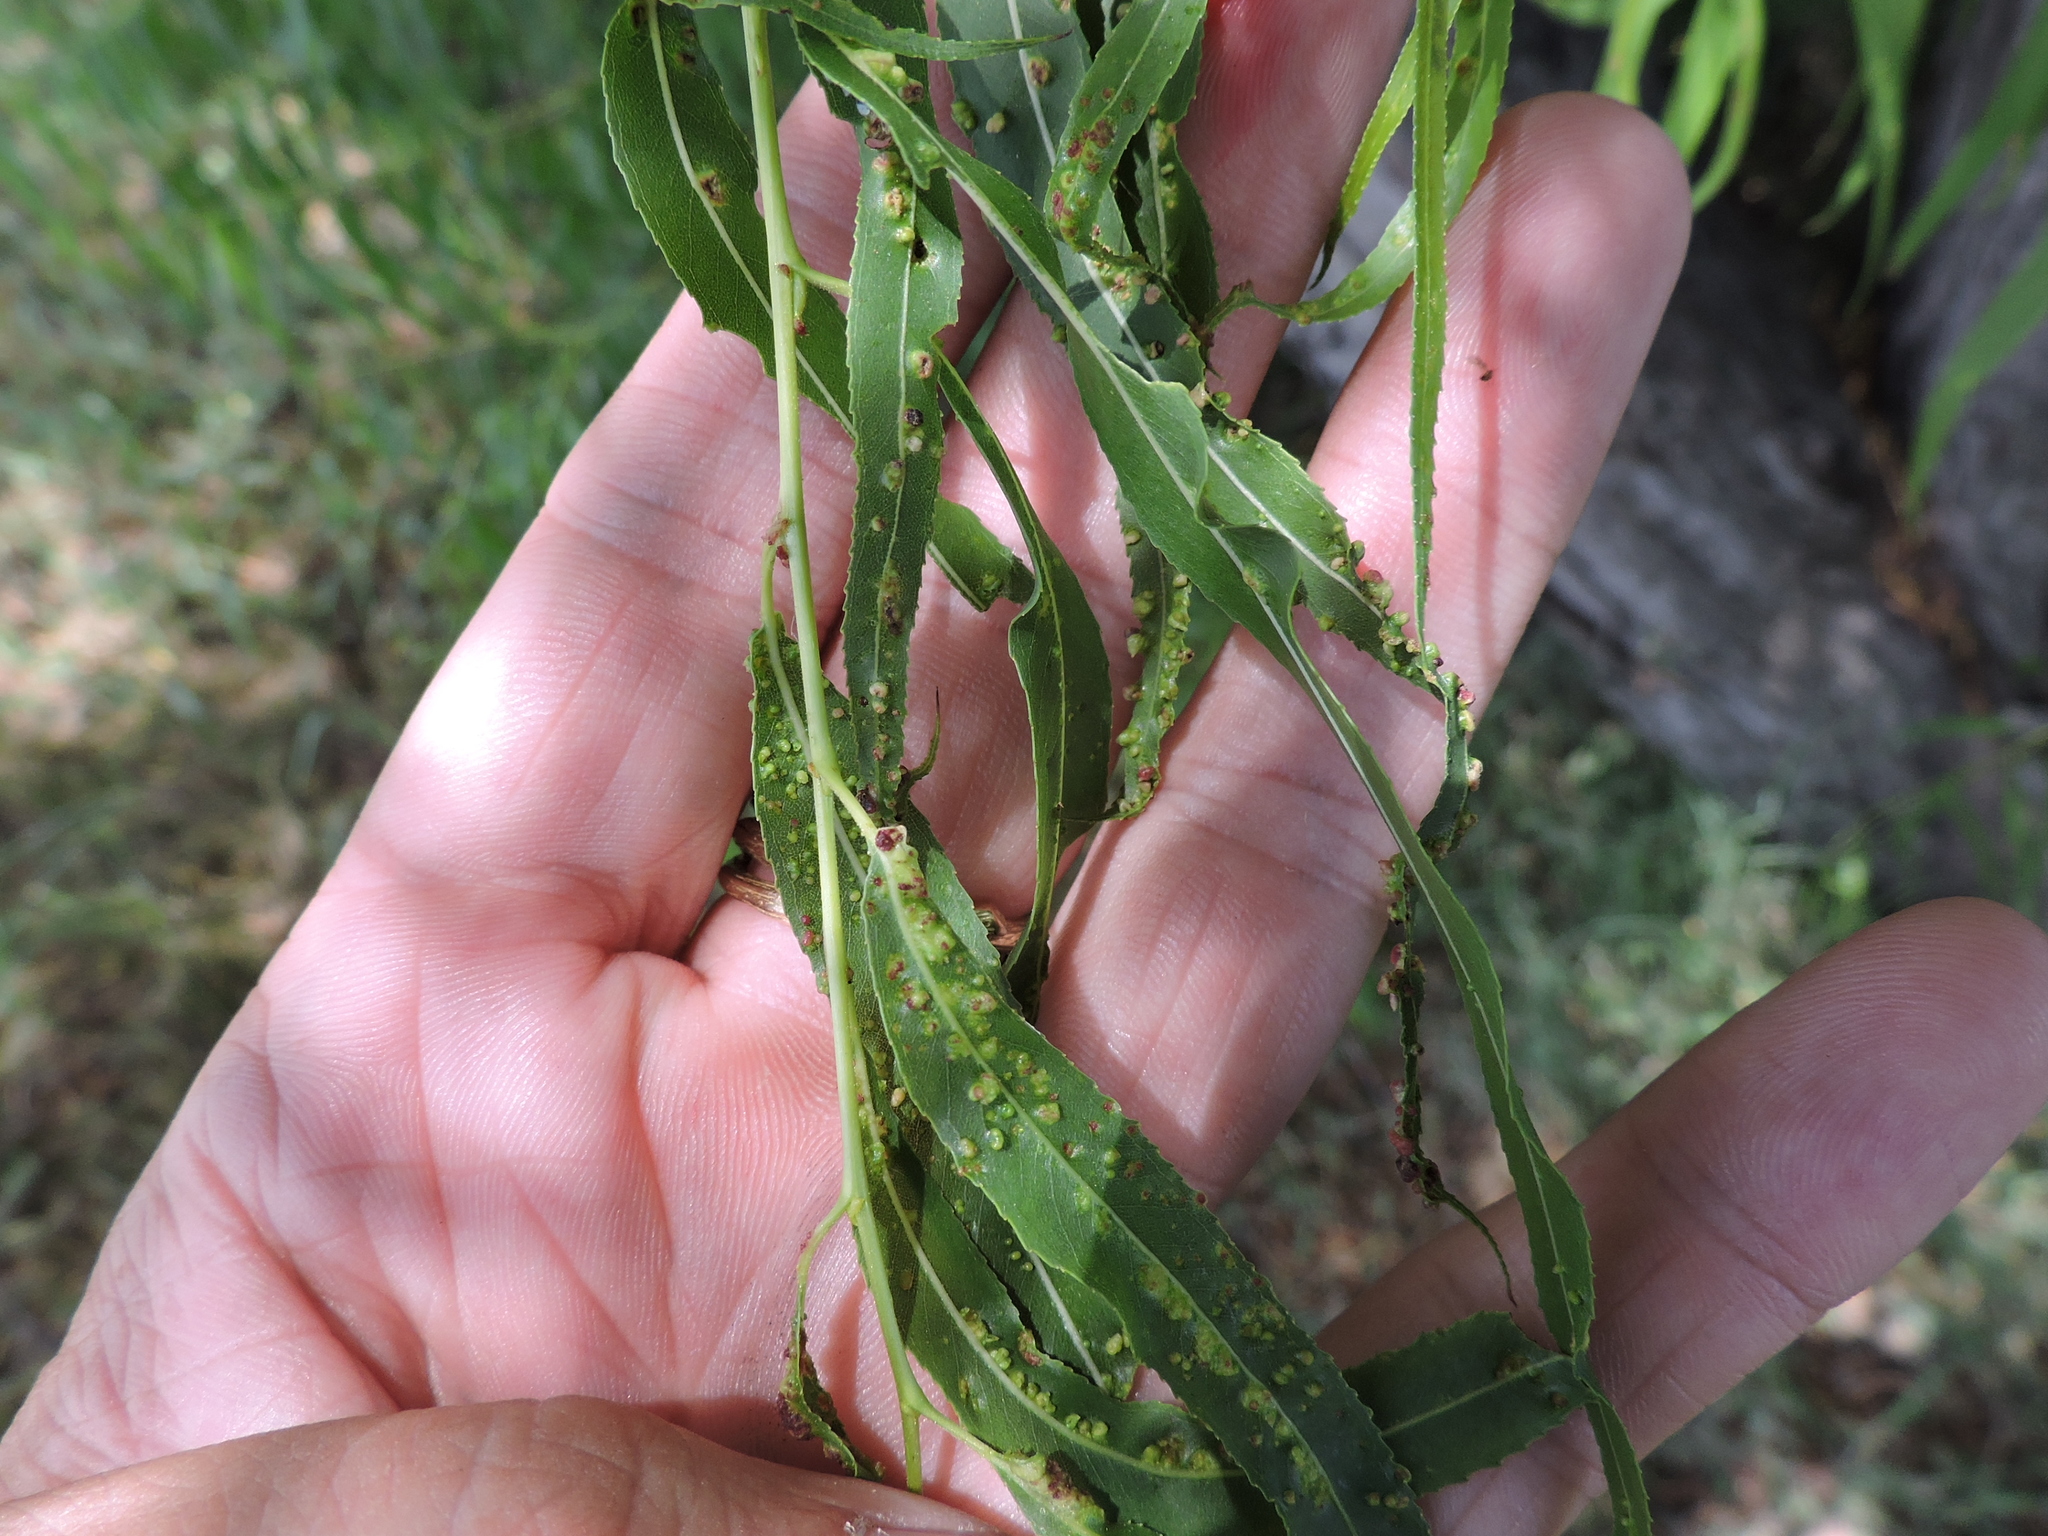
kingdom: Animalia
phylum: Arthropoda
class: Arachnida
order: Trombidiformes
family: Eriophyidae
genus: Aculus
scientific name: Aculus tetanothrix
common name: Willow bead gall mite
